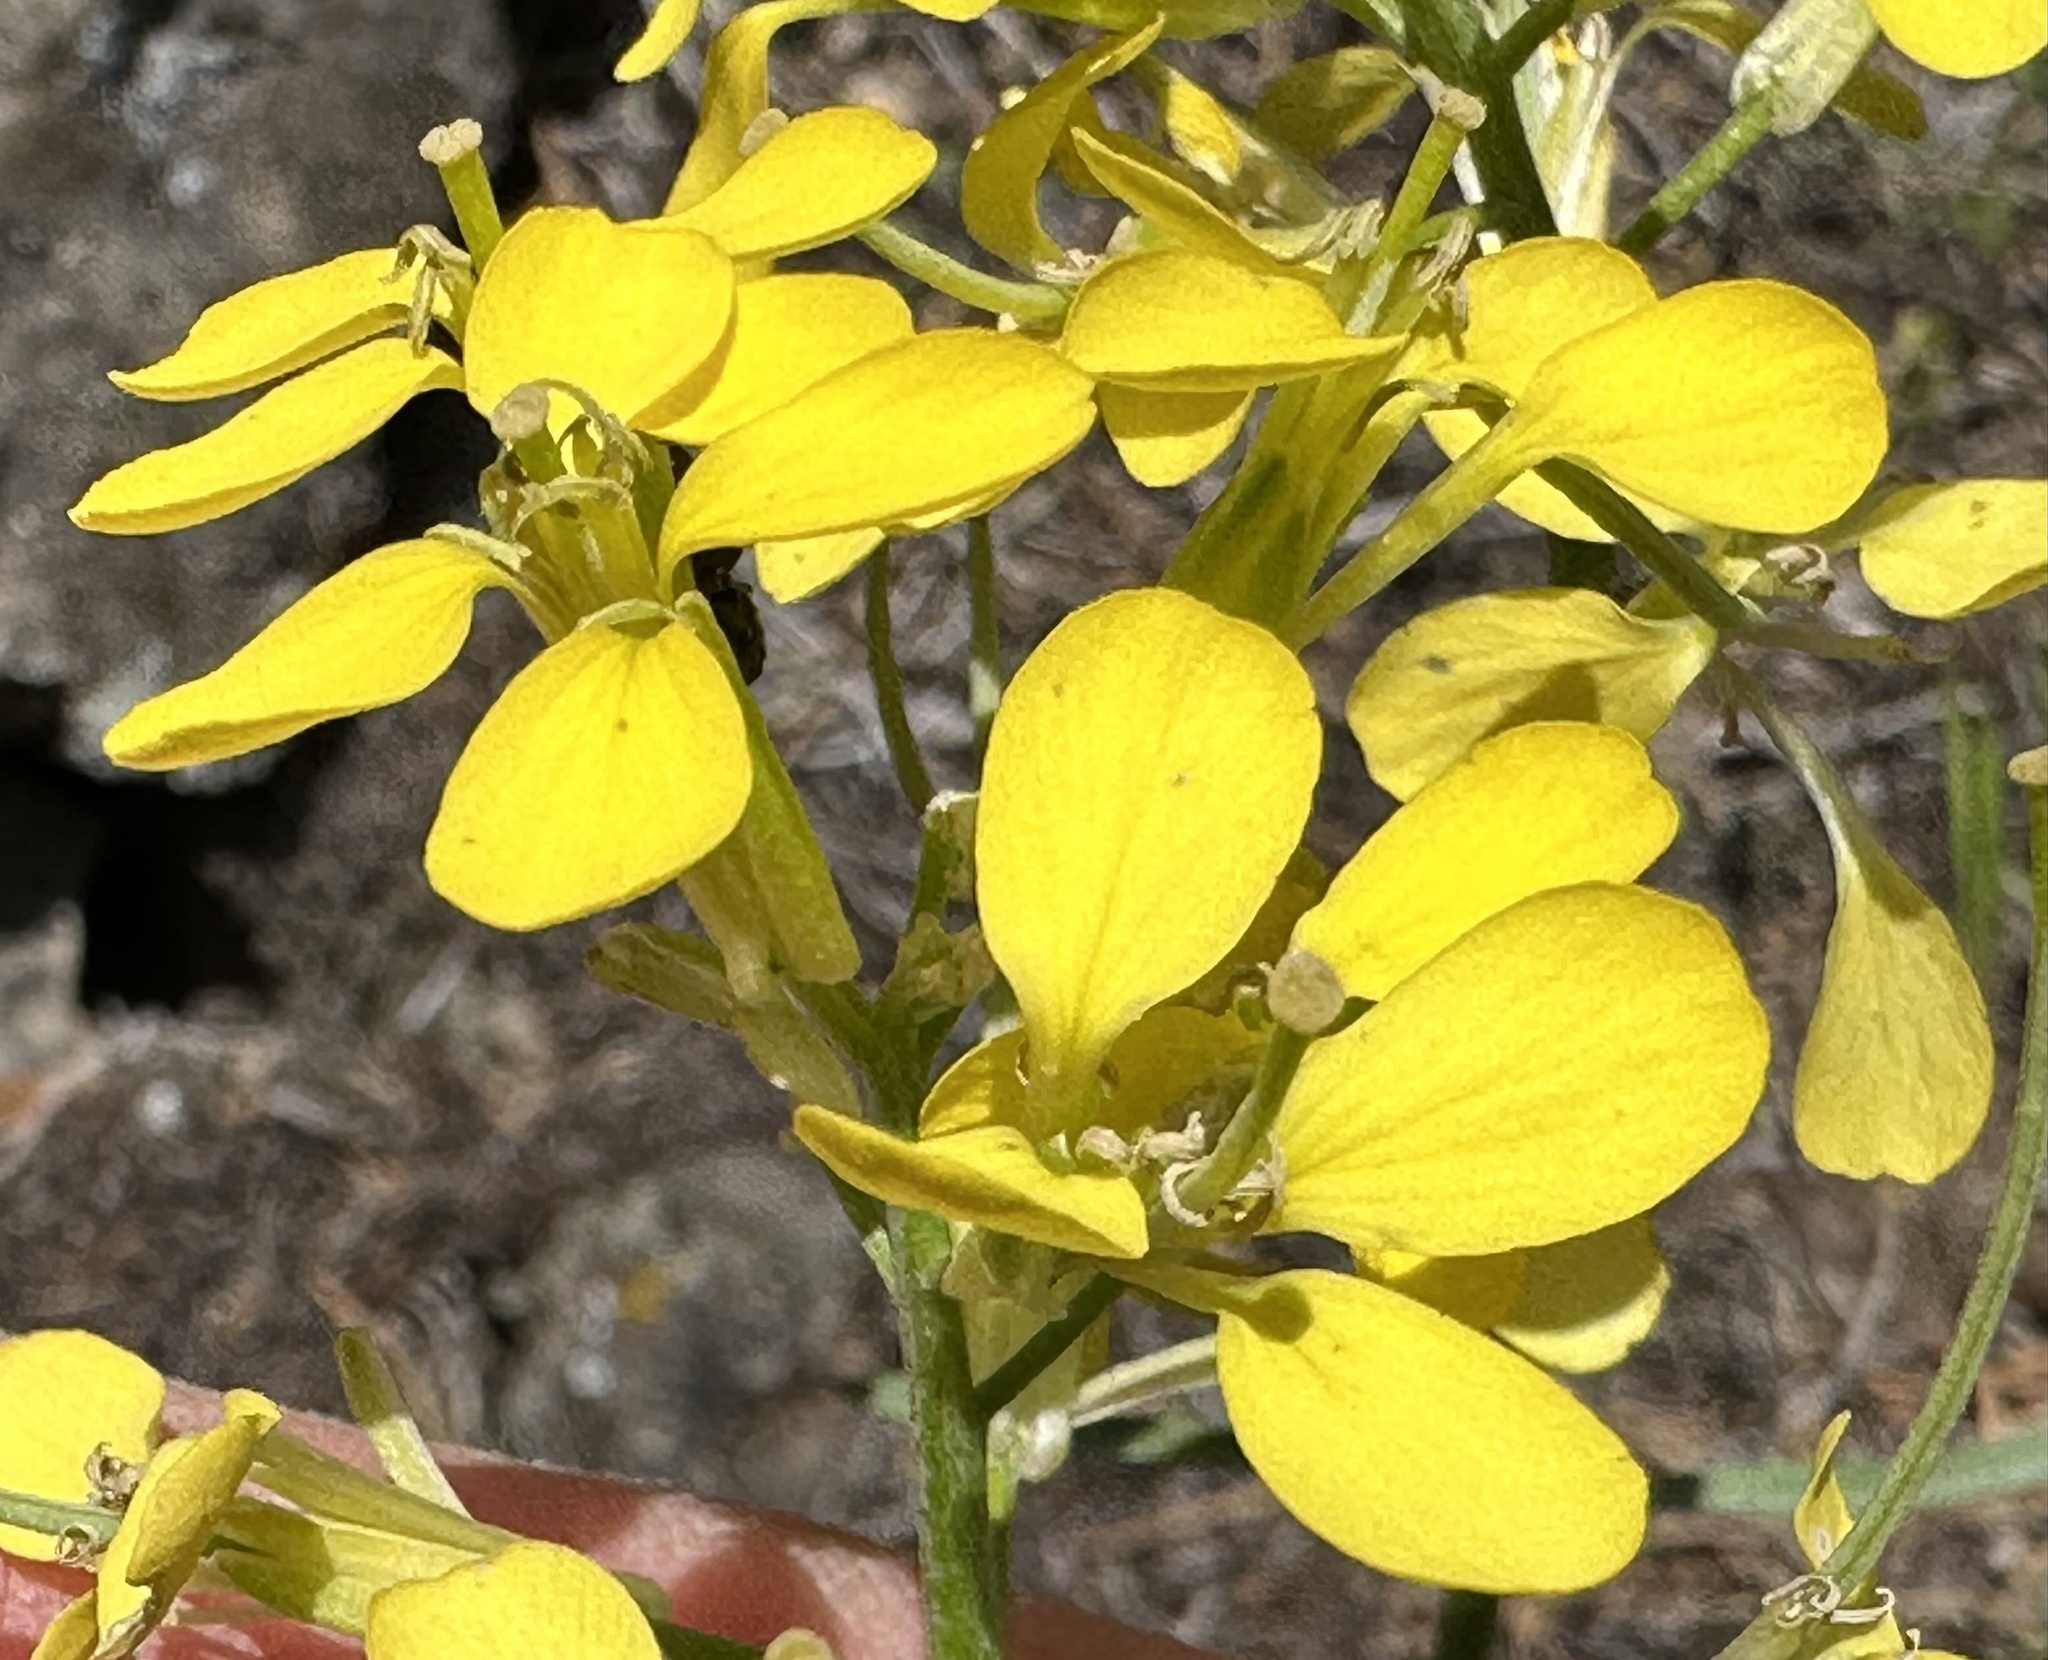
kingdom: Plantae
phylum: Tracheophyta
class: Magnoliopsida
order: Brassicales
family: Brassicaceae
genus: Erysimum
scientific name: Erysimum capitatum
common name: Western wallflower
